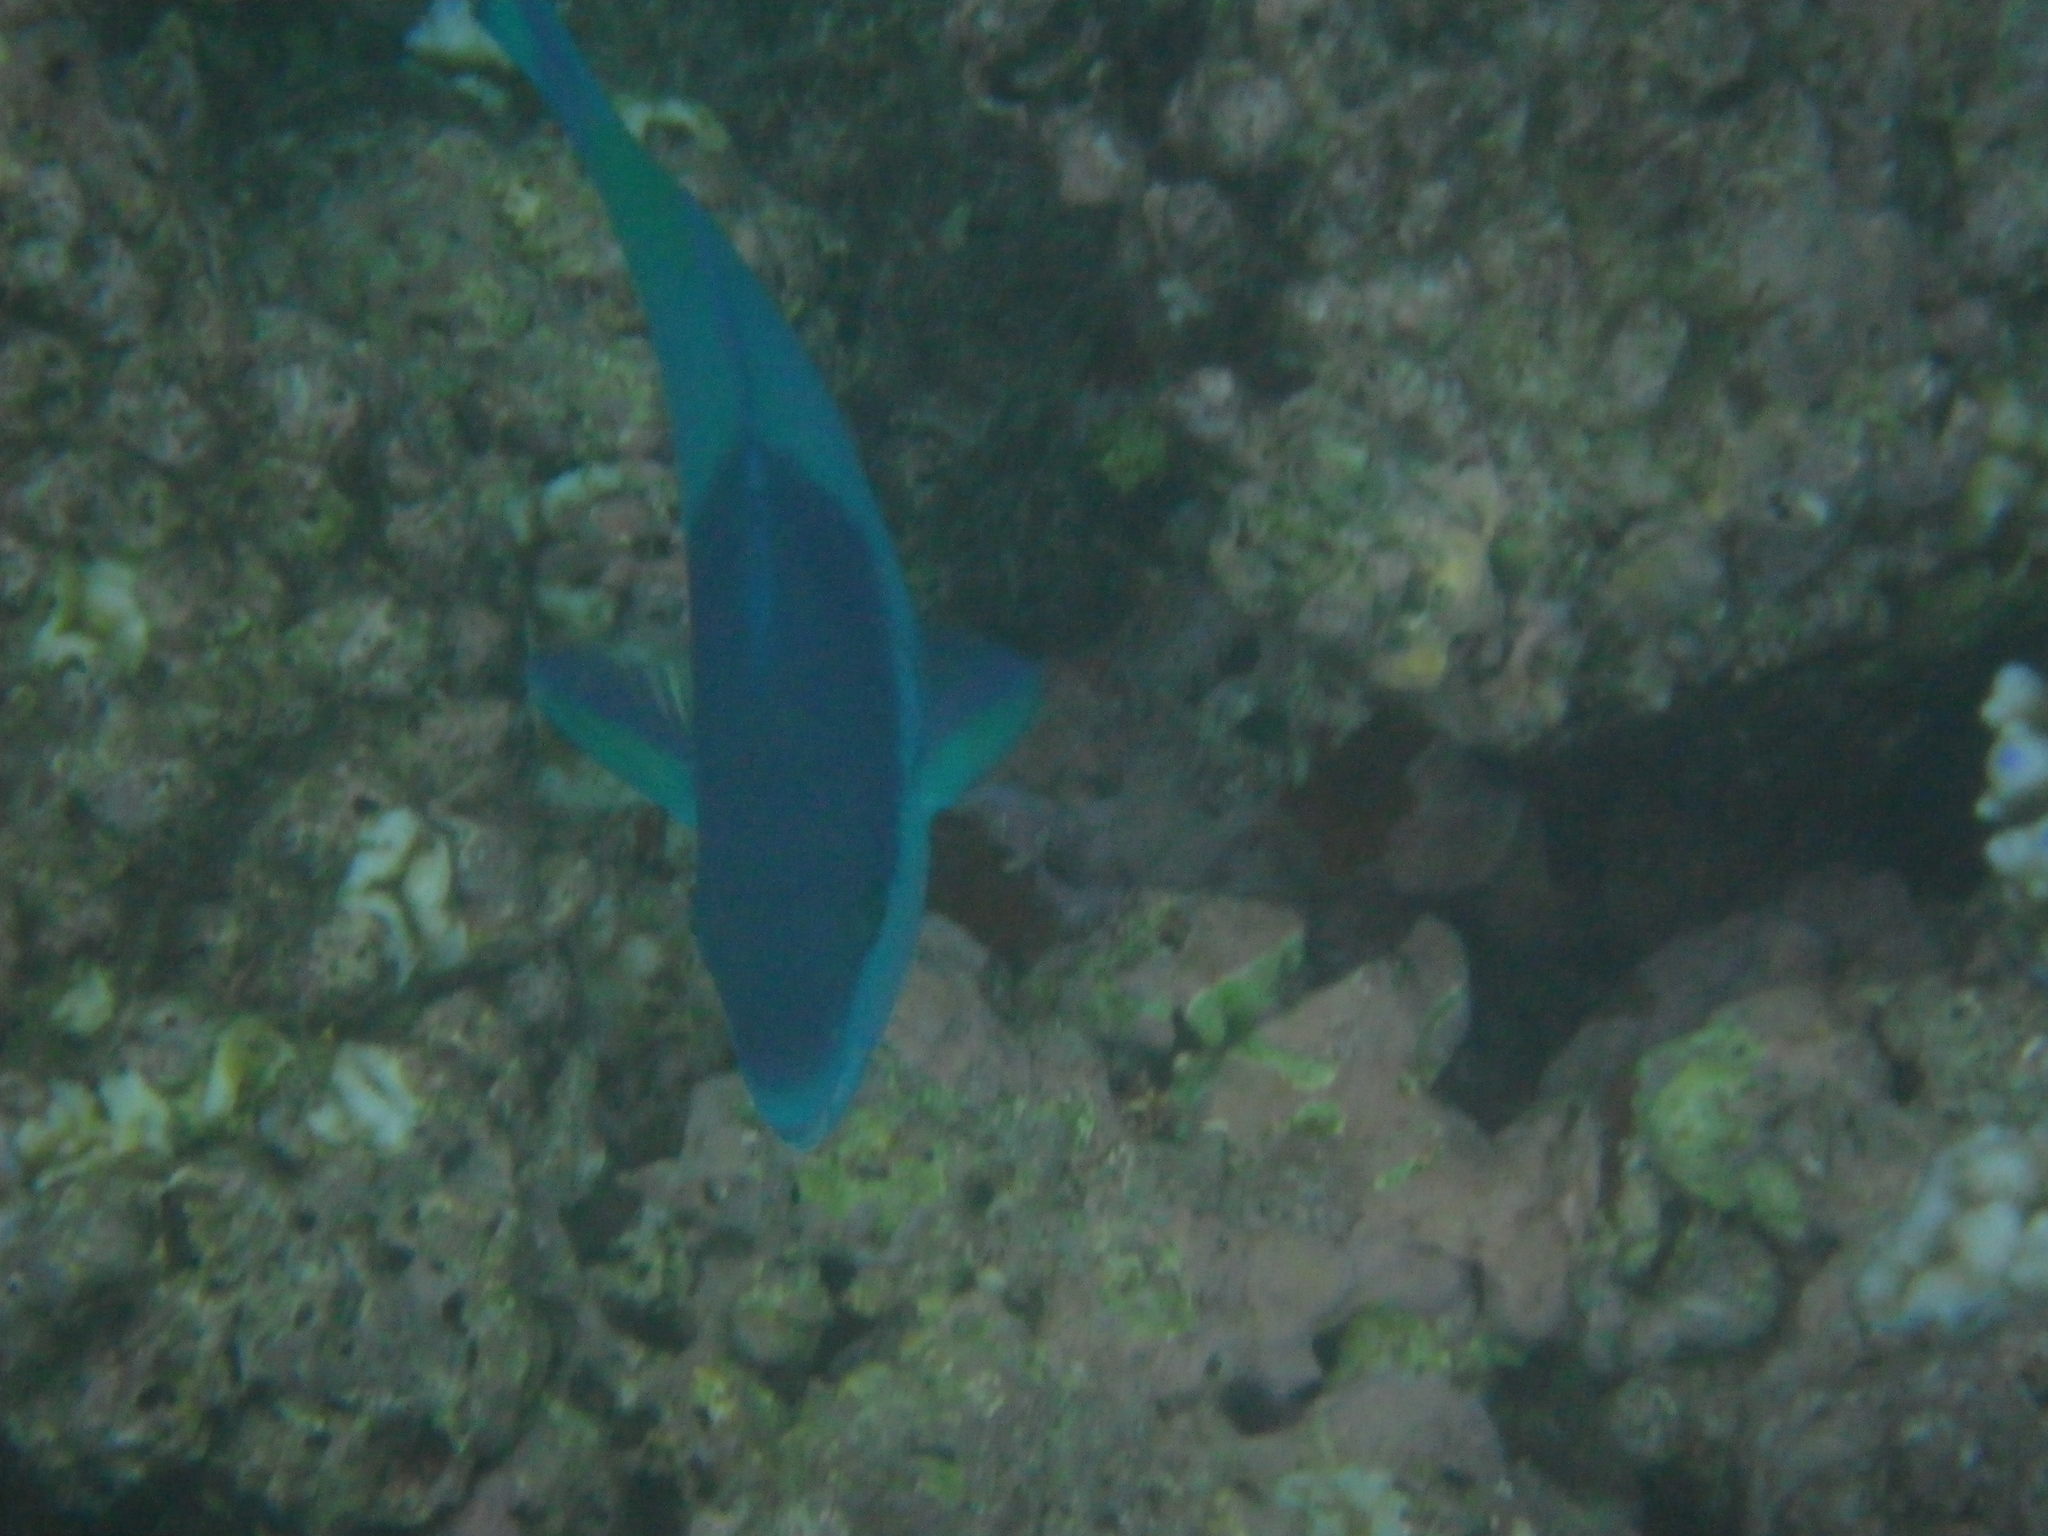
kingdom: Animalia
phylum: Chordata
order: Perciformes
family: Scaridae
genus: Scarus
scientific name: Scarus oviceps
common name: Blue parrotfish
